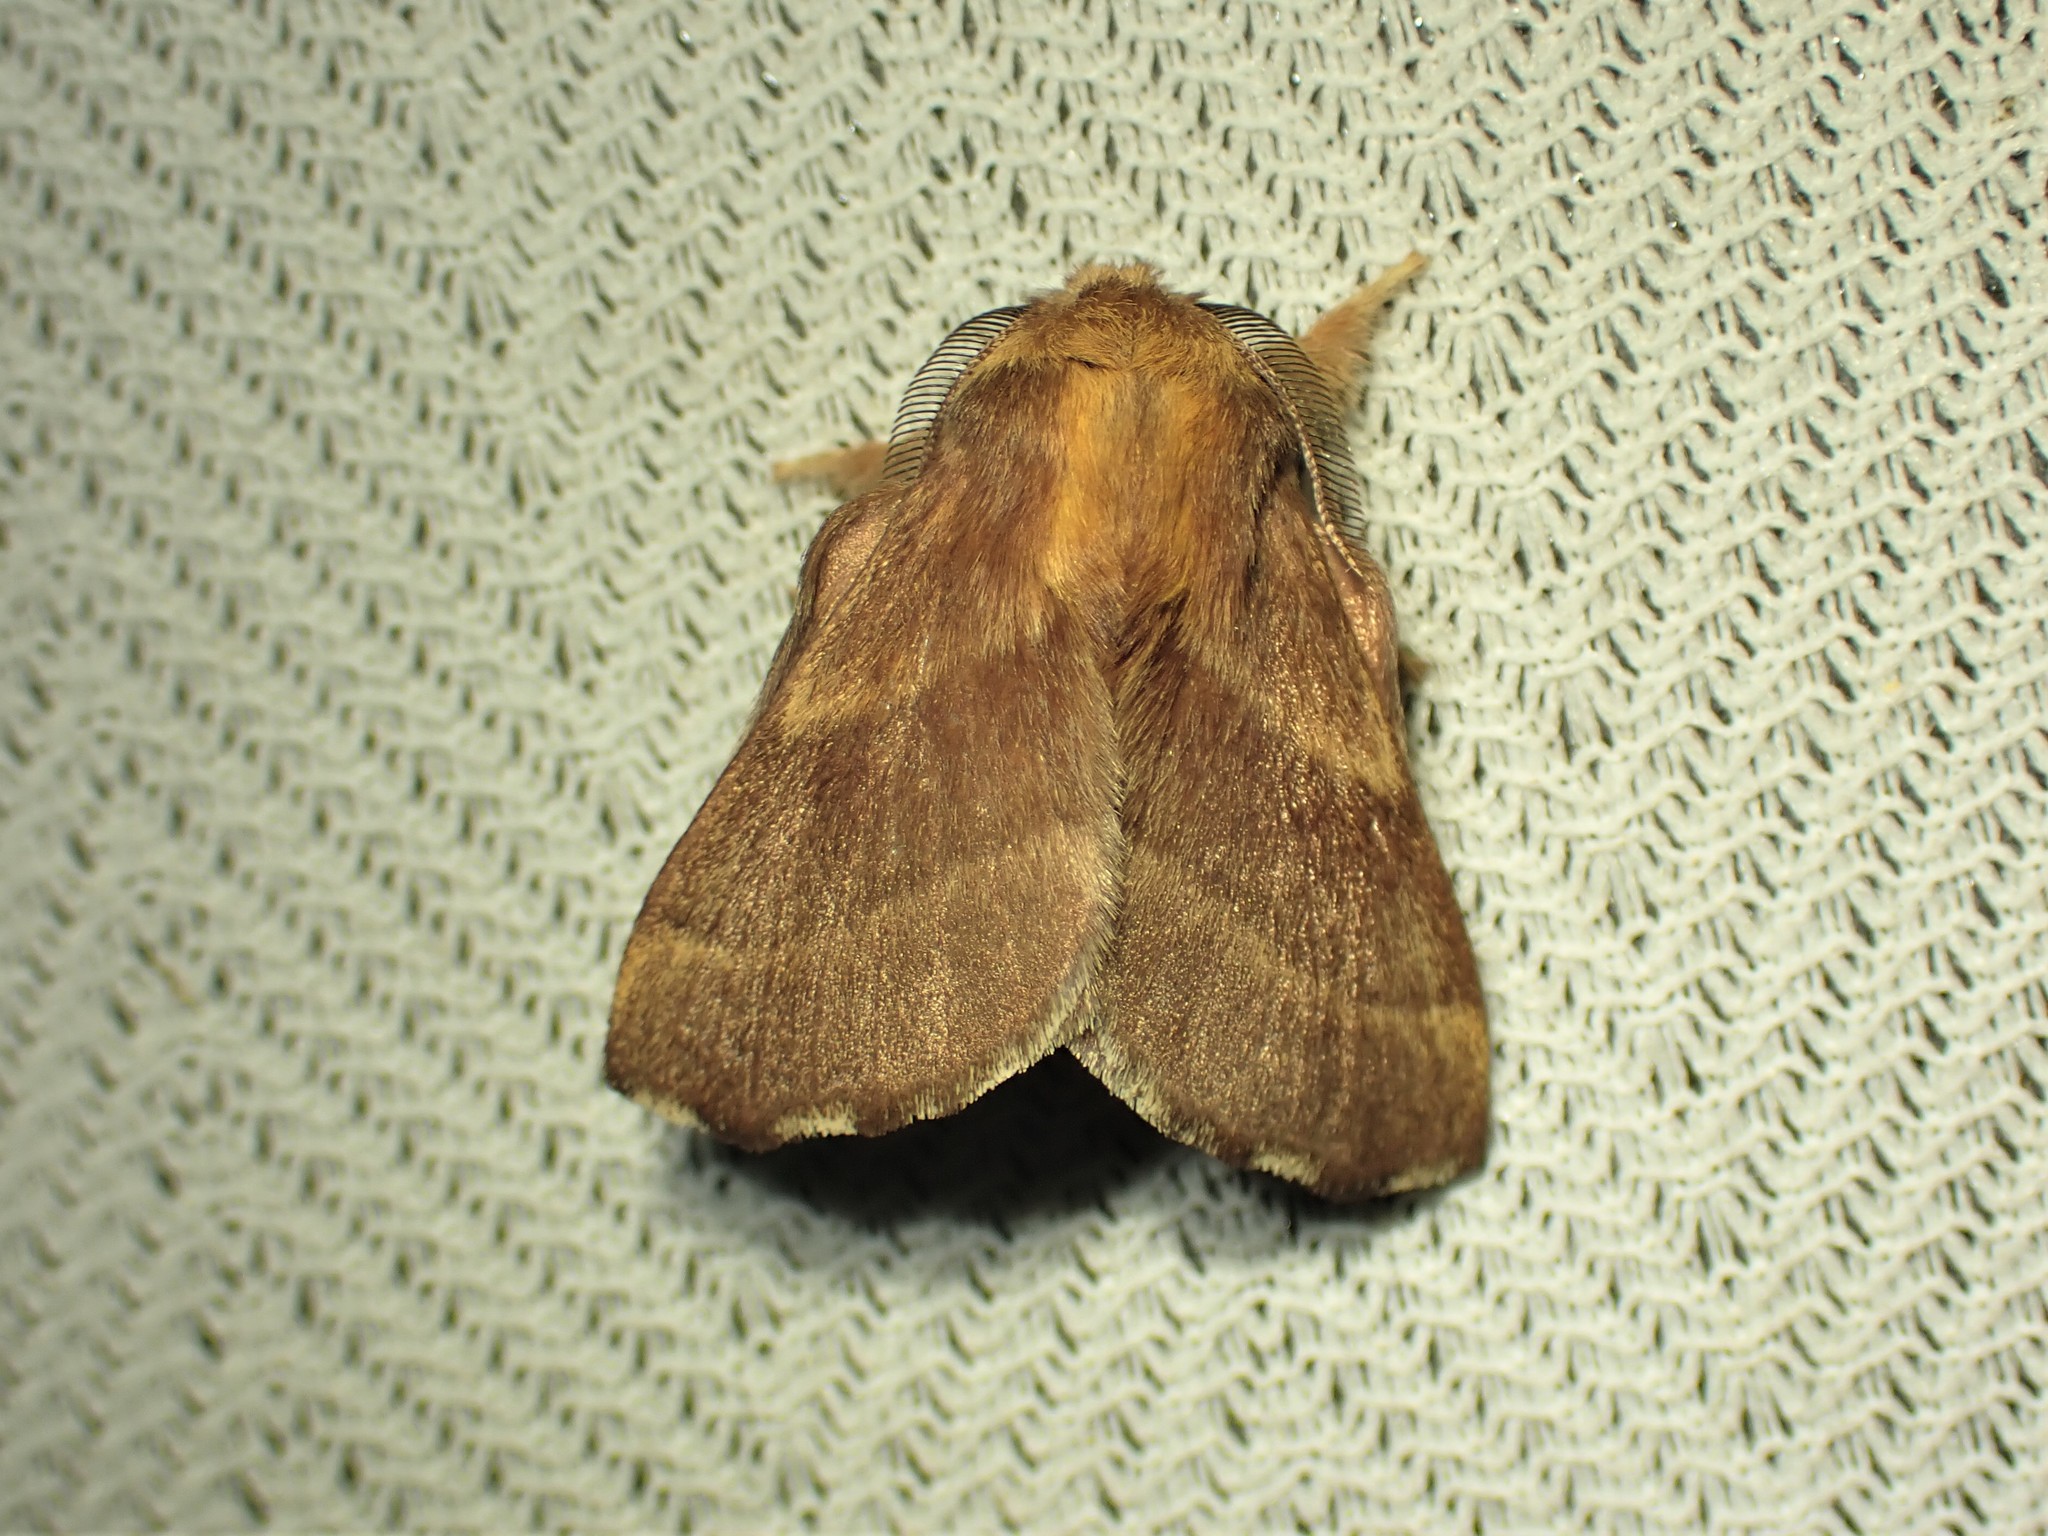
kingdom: Animalia
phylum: Arthropoda
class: Insecta
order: Lepidoptera
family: Lasiocampidae
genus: Malacosoma
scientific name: Malacosoma disstria
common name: Forest tent caterpillar
